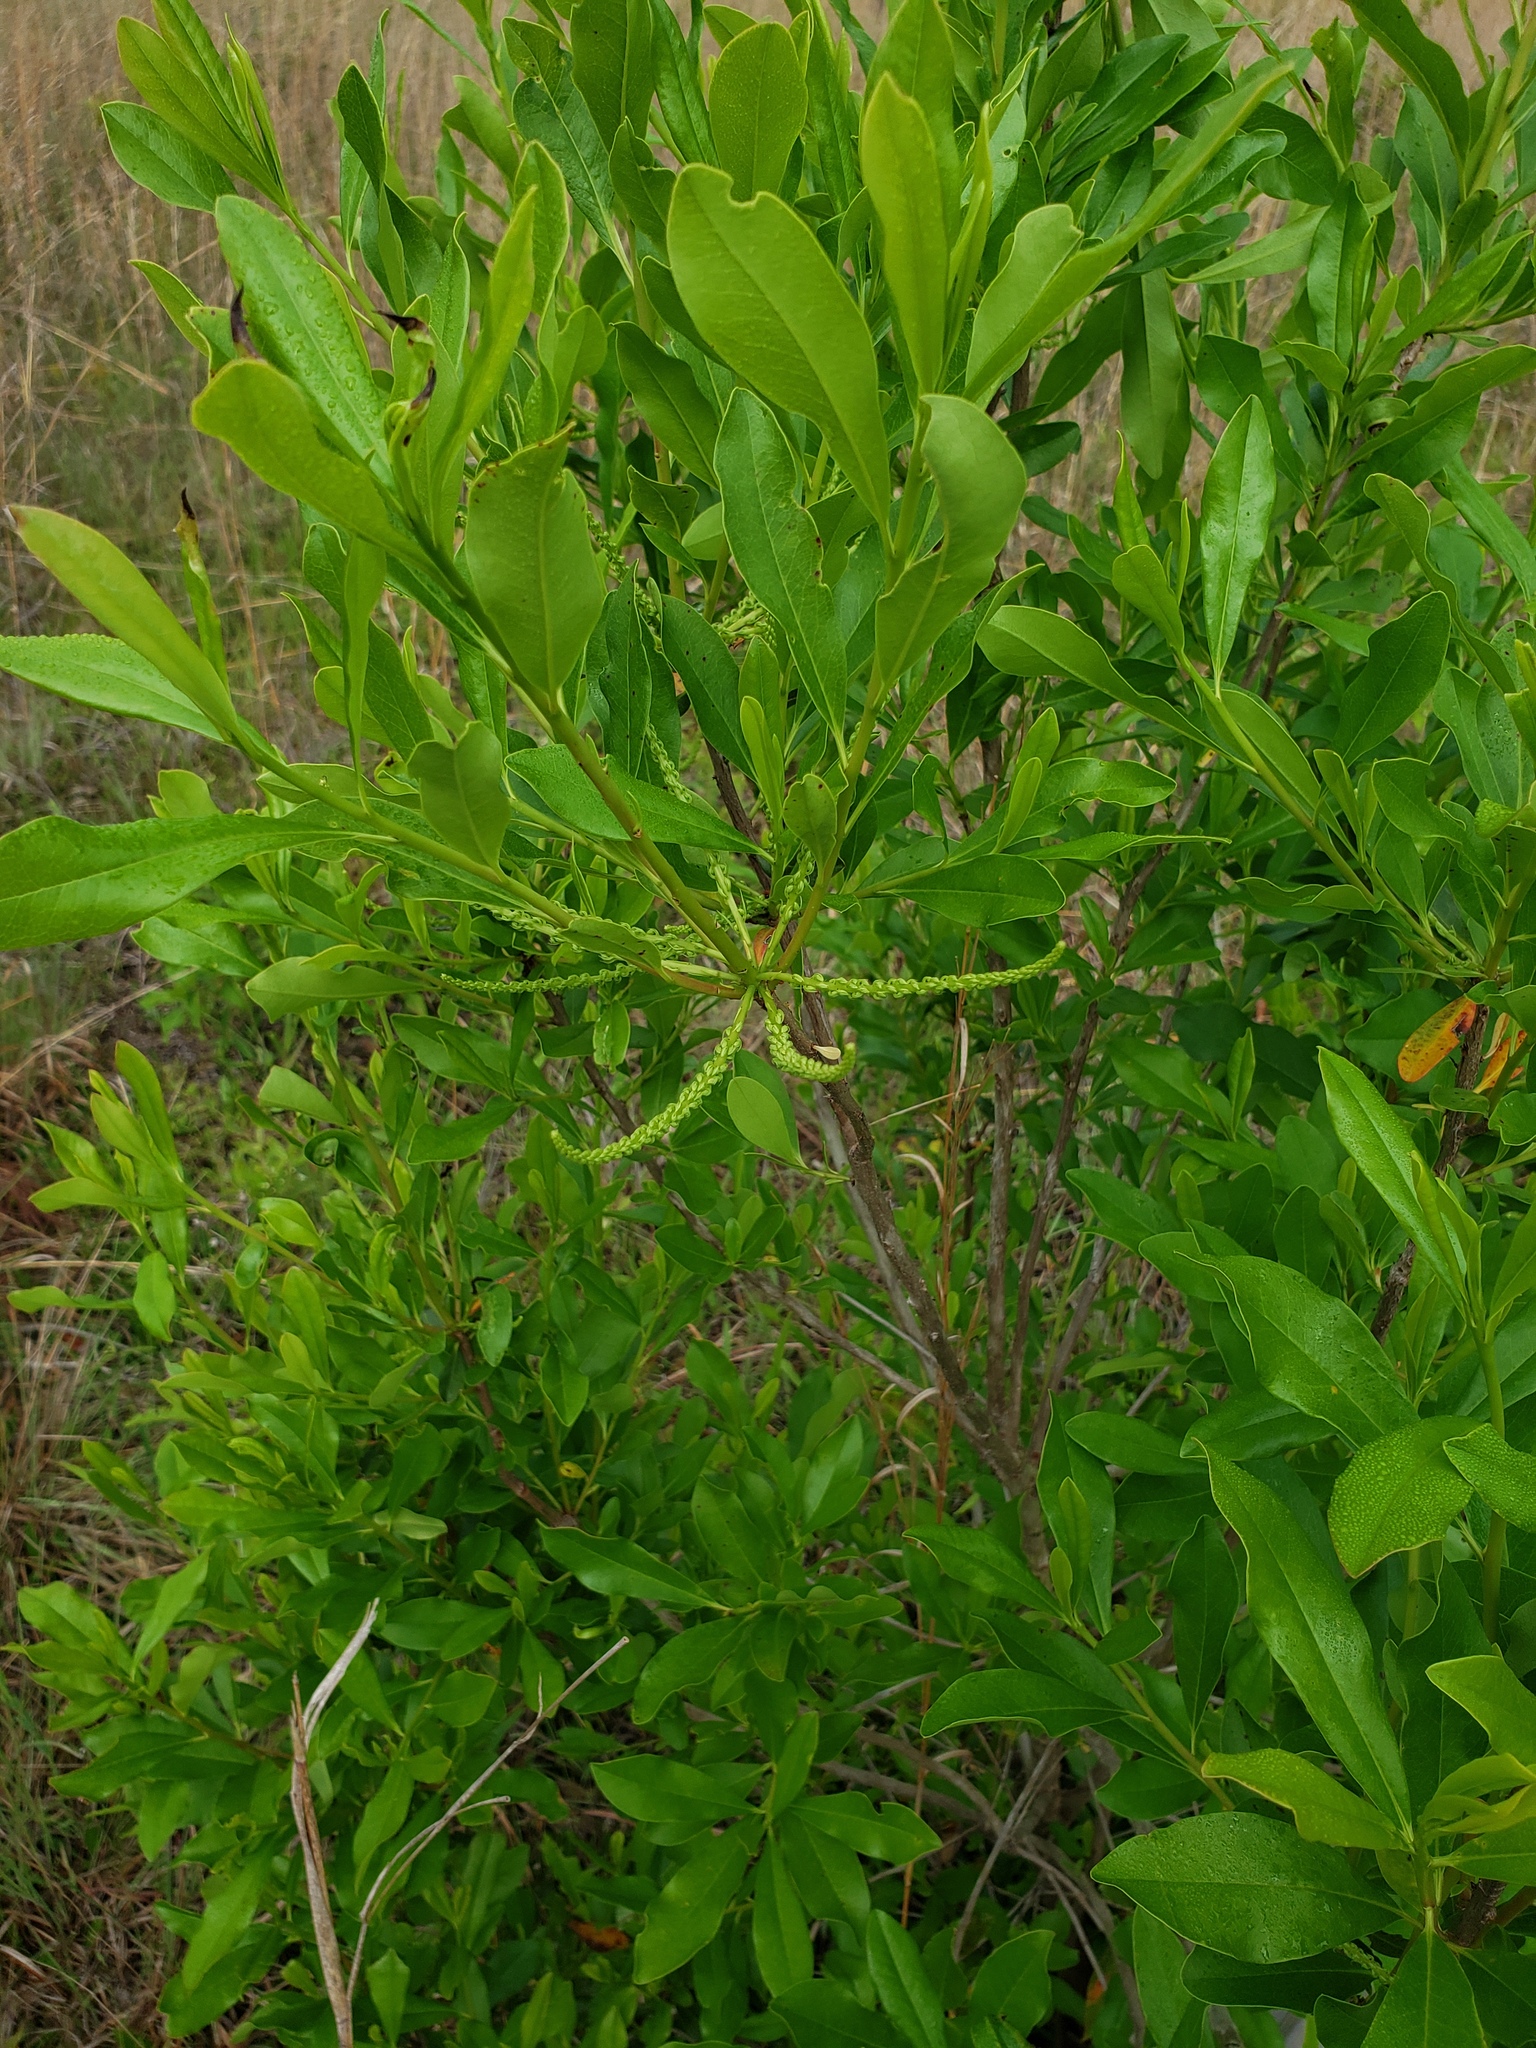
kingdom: Plantae
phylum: Tracheophyta
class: Magnoliopsida
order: Ericales
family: Cyrillaceae
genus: Cyrilla
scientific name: Cyrilla racemiflora
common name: Black titi
